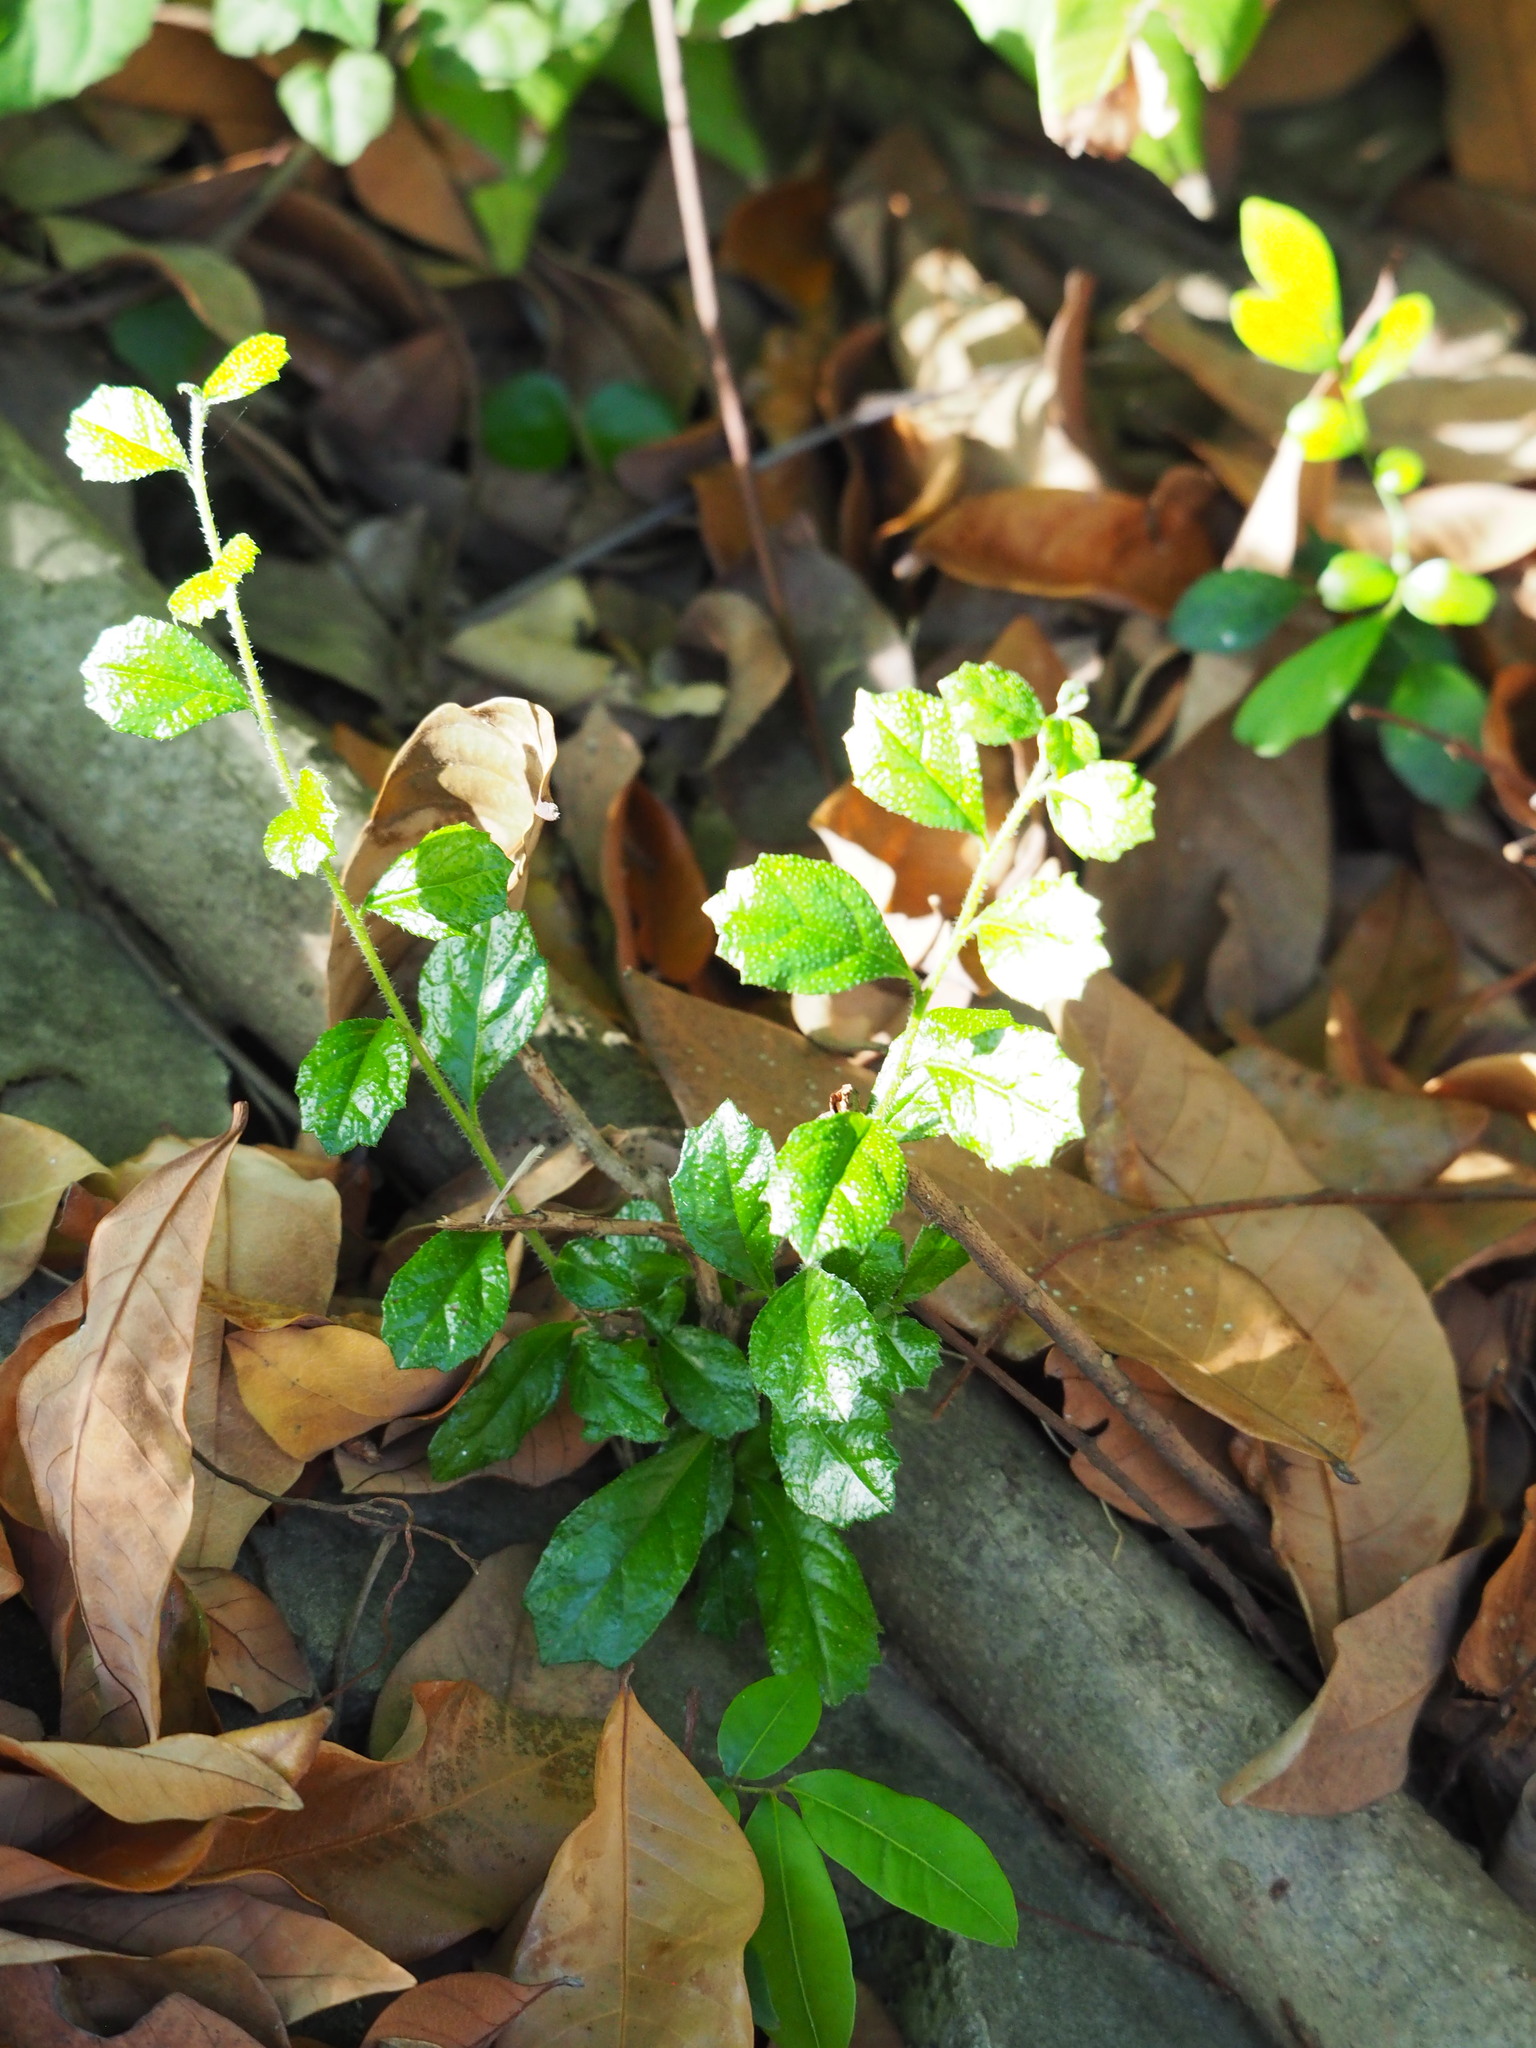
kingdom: Plantae
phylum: Tracheophyta
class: Magnoliopsida
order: Boraginales
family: Ehretiaceae
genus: Ehretia
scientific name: Ehretia microphylla
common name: Fukien-tea
